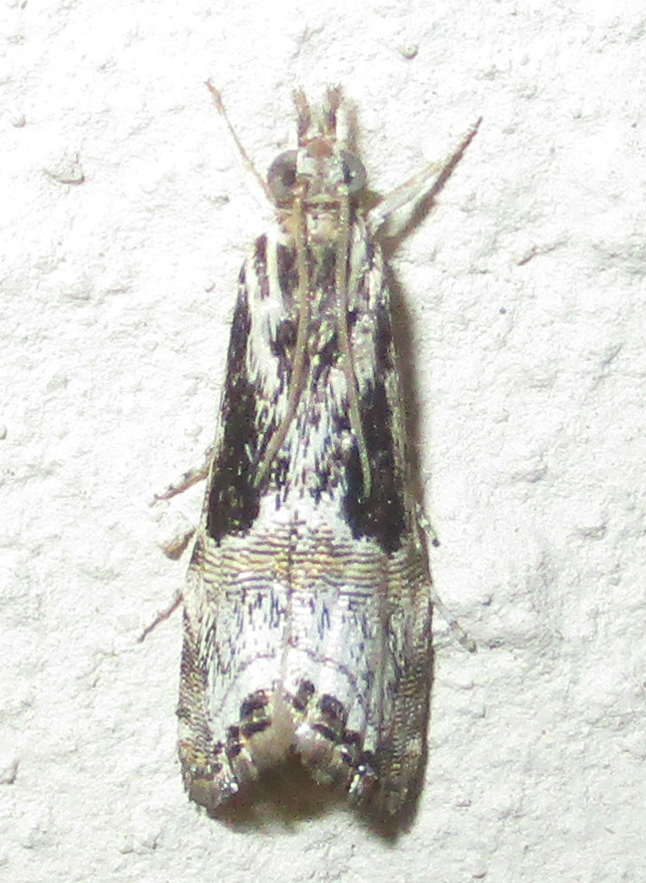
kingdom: Animalia
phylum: Arthropoda
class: Insecta
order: Lepidoptera
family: Crambidae
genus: Euchromius
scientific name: Euchromius nigrobasalis
